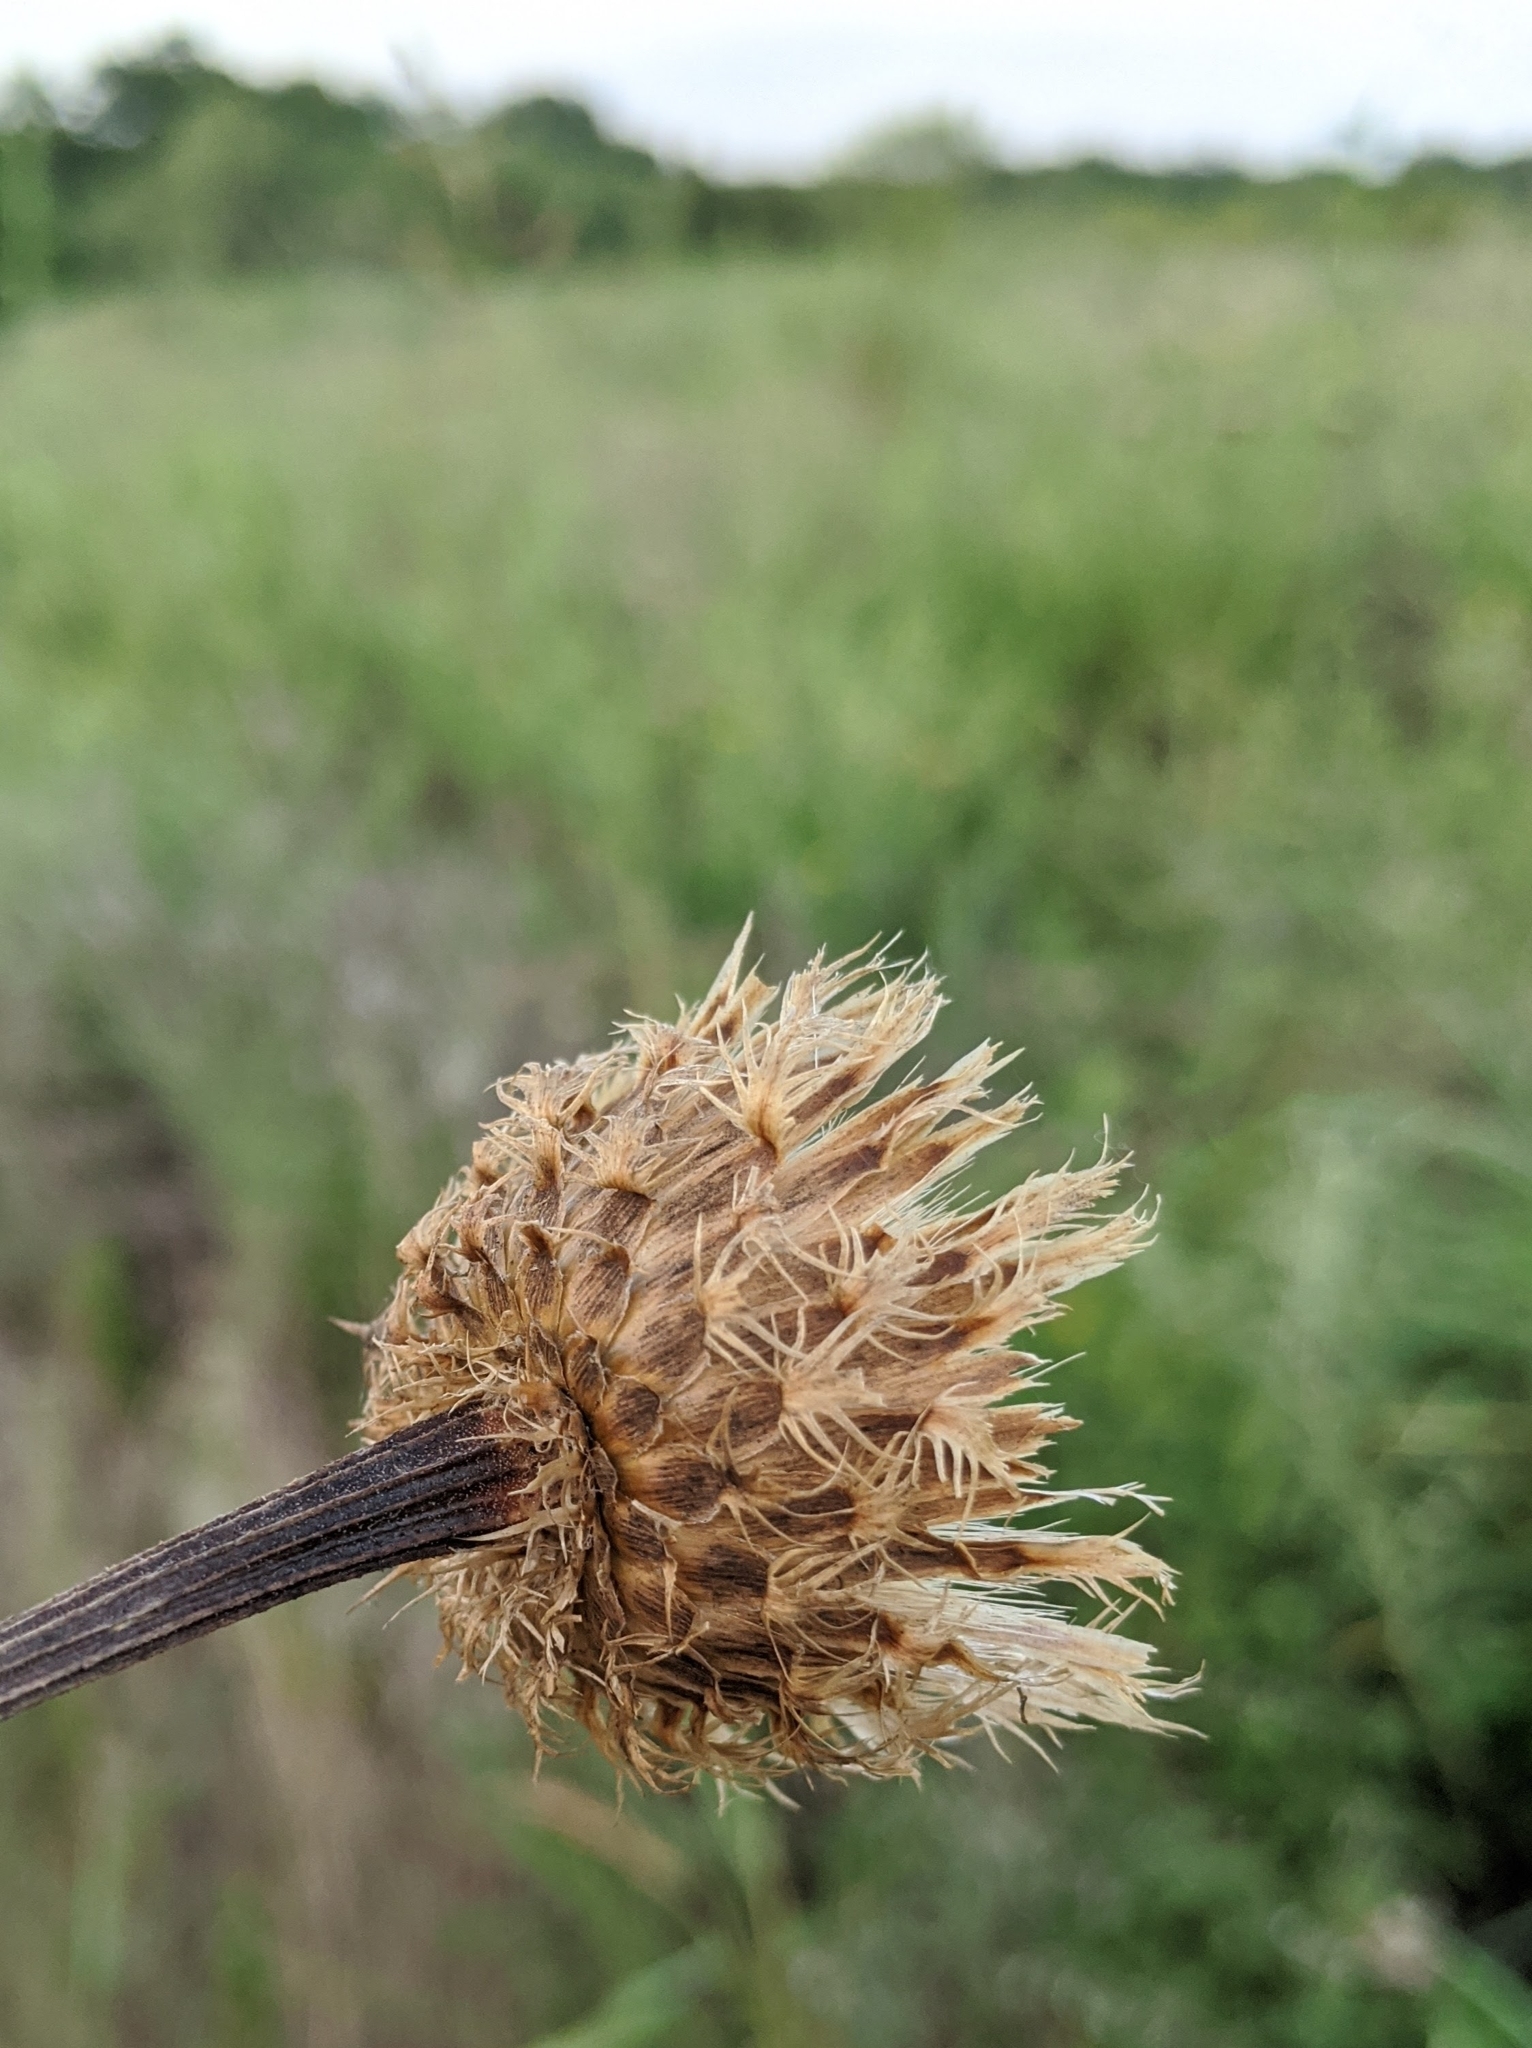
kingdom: Plantae
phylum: Tracheophyta
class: Magnoliopsida
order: Asterales
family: Asteraceae
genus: Plectocephalus
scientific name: Plectocephalus americanus
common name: American basket-flower
